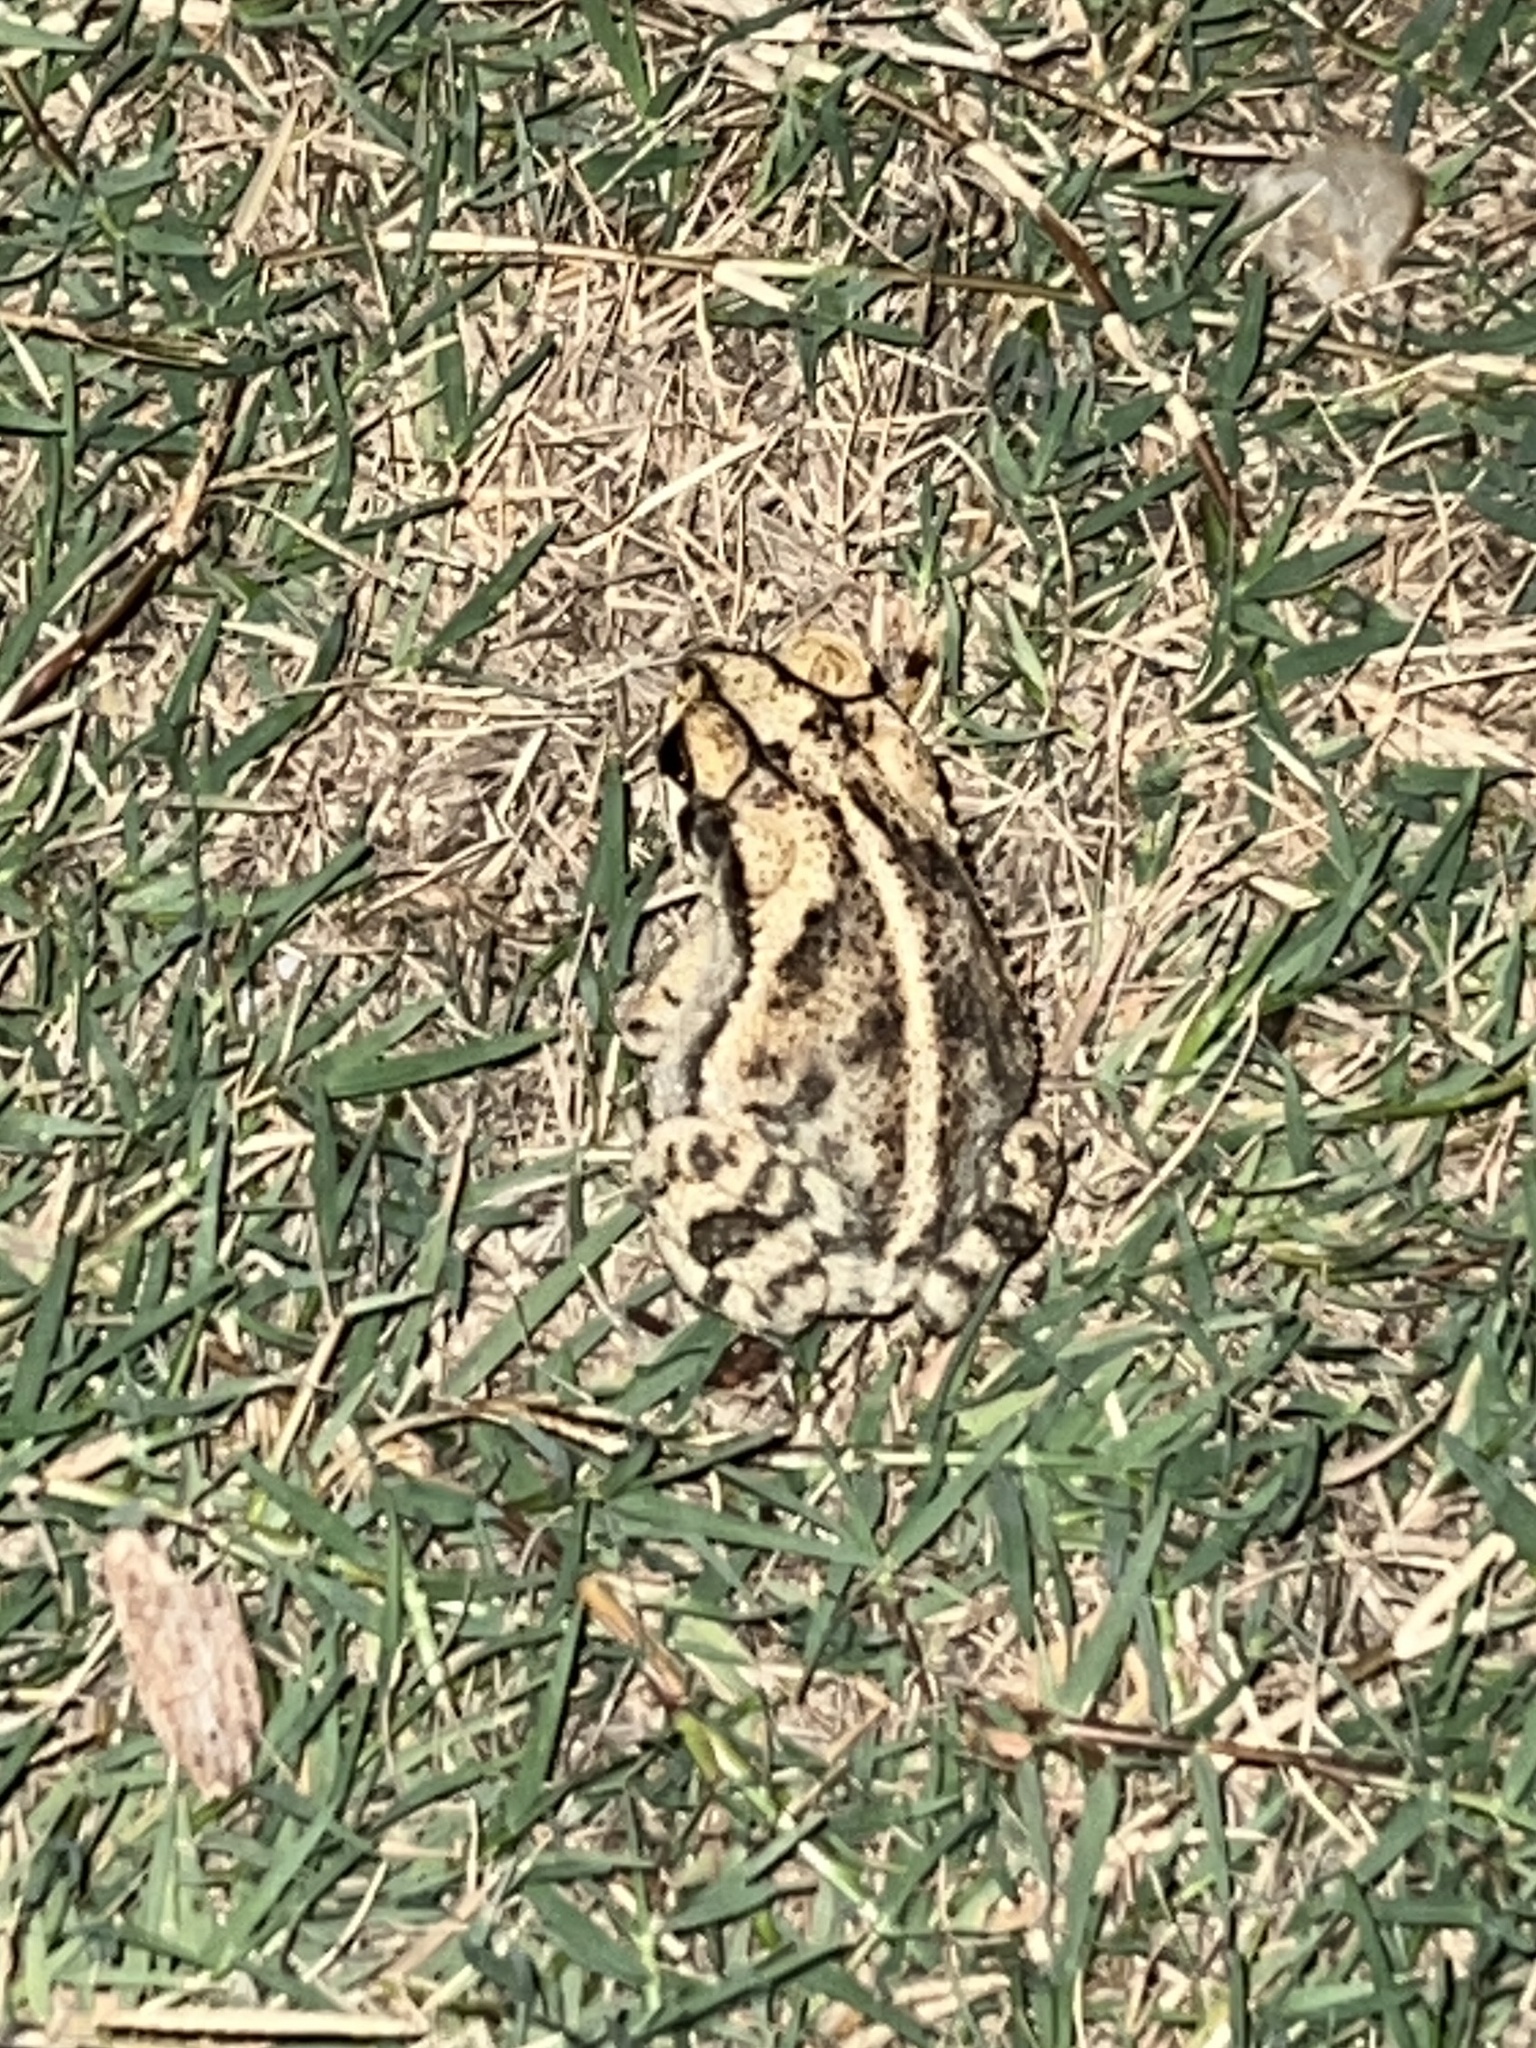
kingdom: Animalia
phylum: Chordata
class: Amphibia
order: Anura
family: Bufonidae
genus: Incilius
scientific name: Incilius nebulifer
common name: Gulf coast toad
